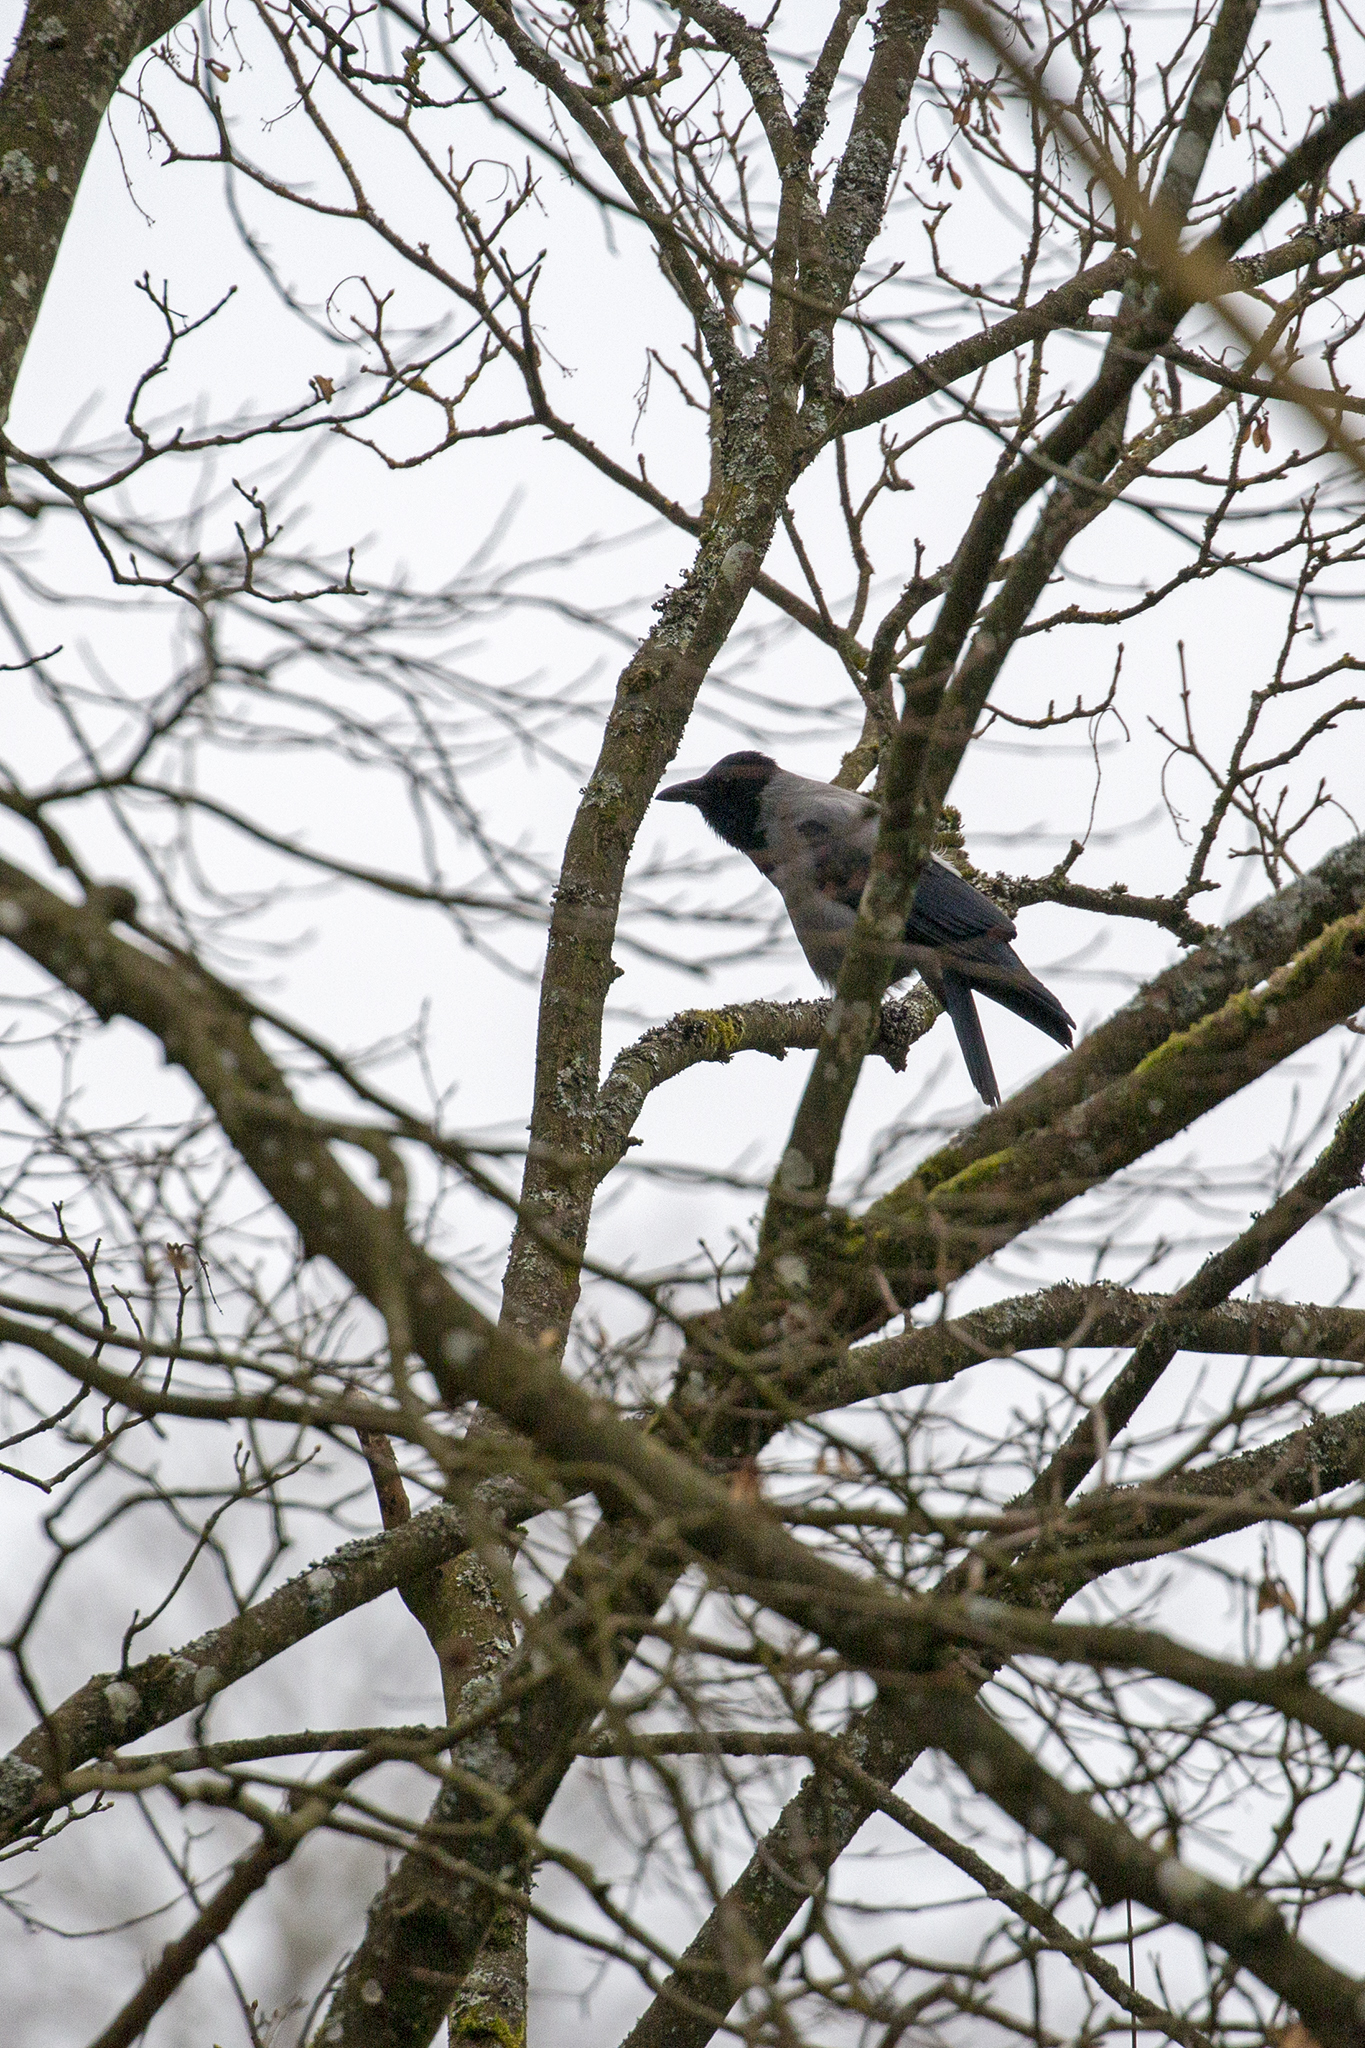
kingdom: Animalia
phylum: Chordata
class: Aves
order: Passeriformes
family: Corvidae
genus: Corvus
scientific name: Corvus cornix
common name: Hooded crow
